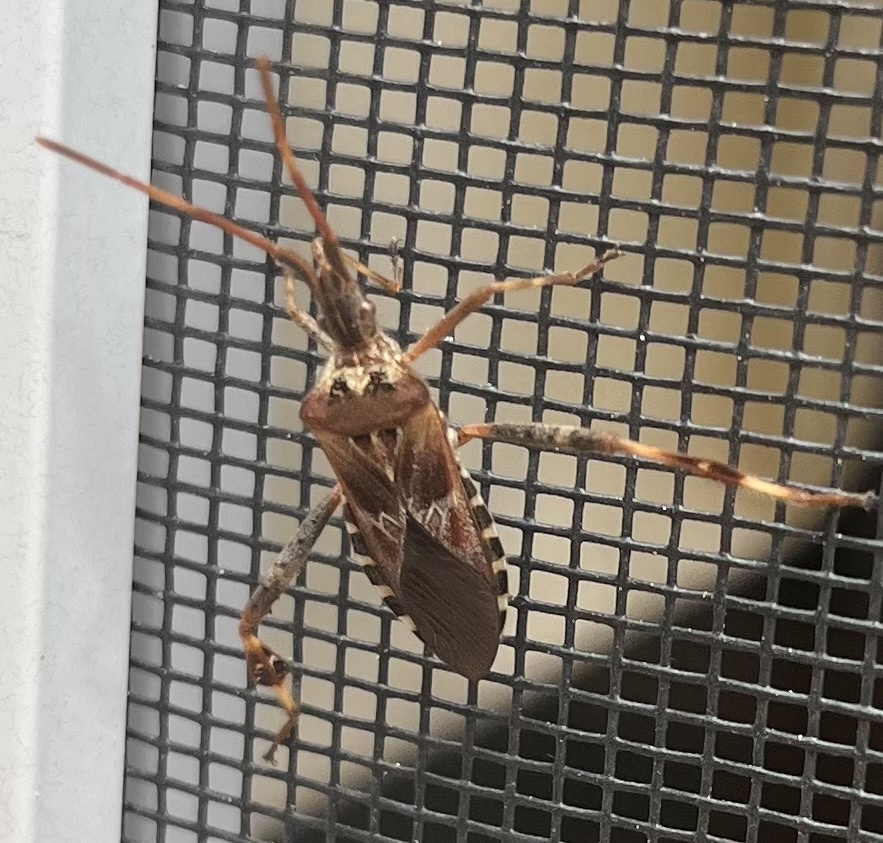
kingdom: Animalia
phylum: Arthropoda
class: Insecta
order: Hemiptera
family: Coreidae
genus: Leptoglossus
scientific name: Leptoglossus occidentalis
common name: Western conifer-seed bug
